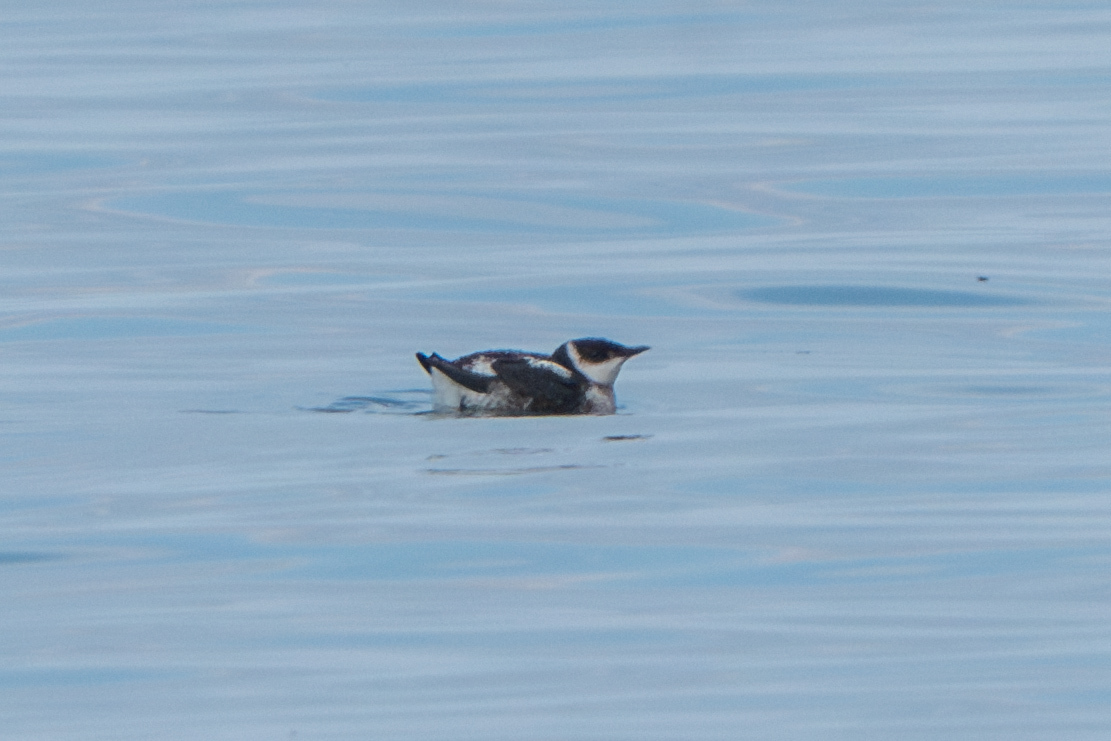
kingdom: Animalia
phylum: Chordata
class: Aves
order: Charadriiformes
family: Alcidae
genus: Brachyramphus
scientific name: Brachyramphus marmoratus
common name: Marbled murrelet
